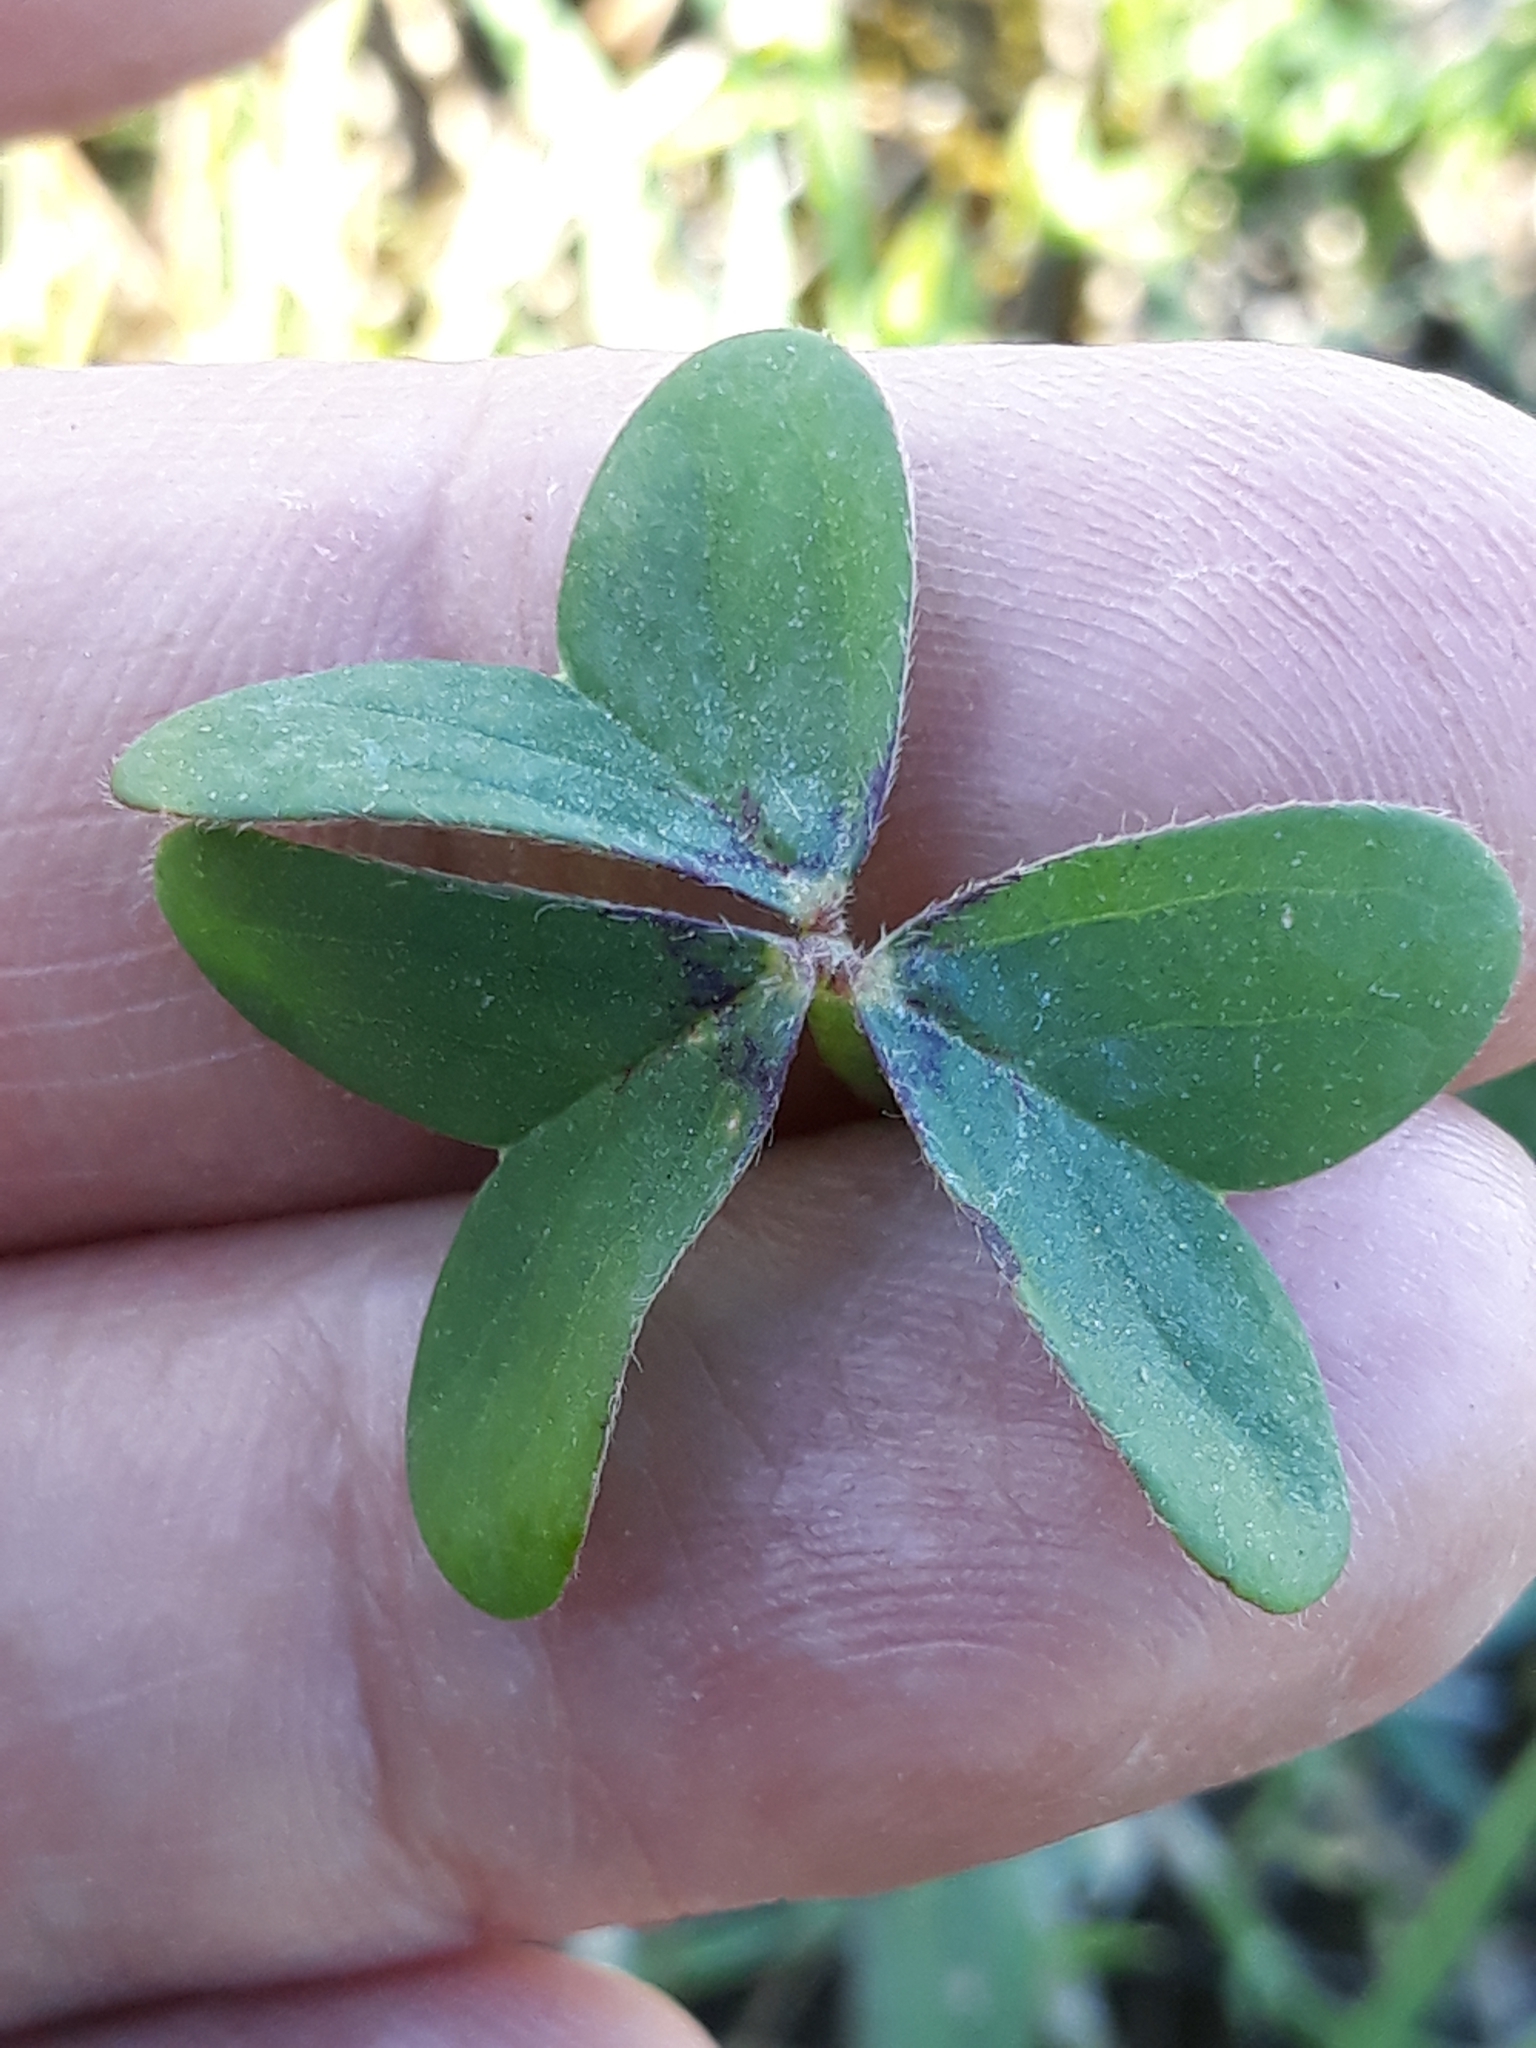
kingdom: Plantae
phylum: Tracheophyta
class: Magnoliopsida
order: Oxalidales
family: Oxalidaceae
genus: Oxalis
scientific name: Oxalis pes-caprae
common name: Bermuda-buttercup
